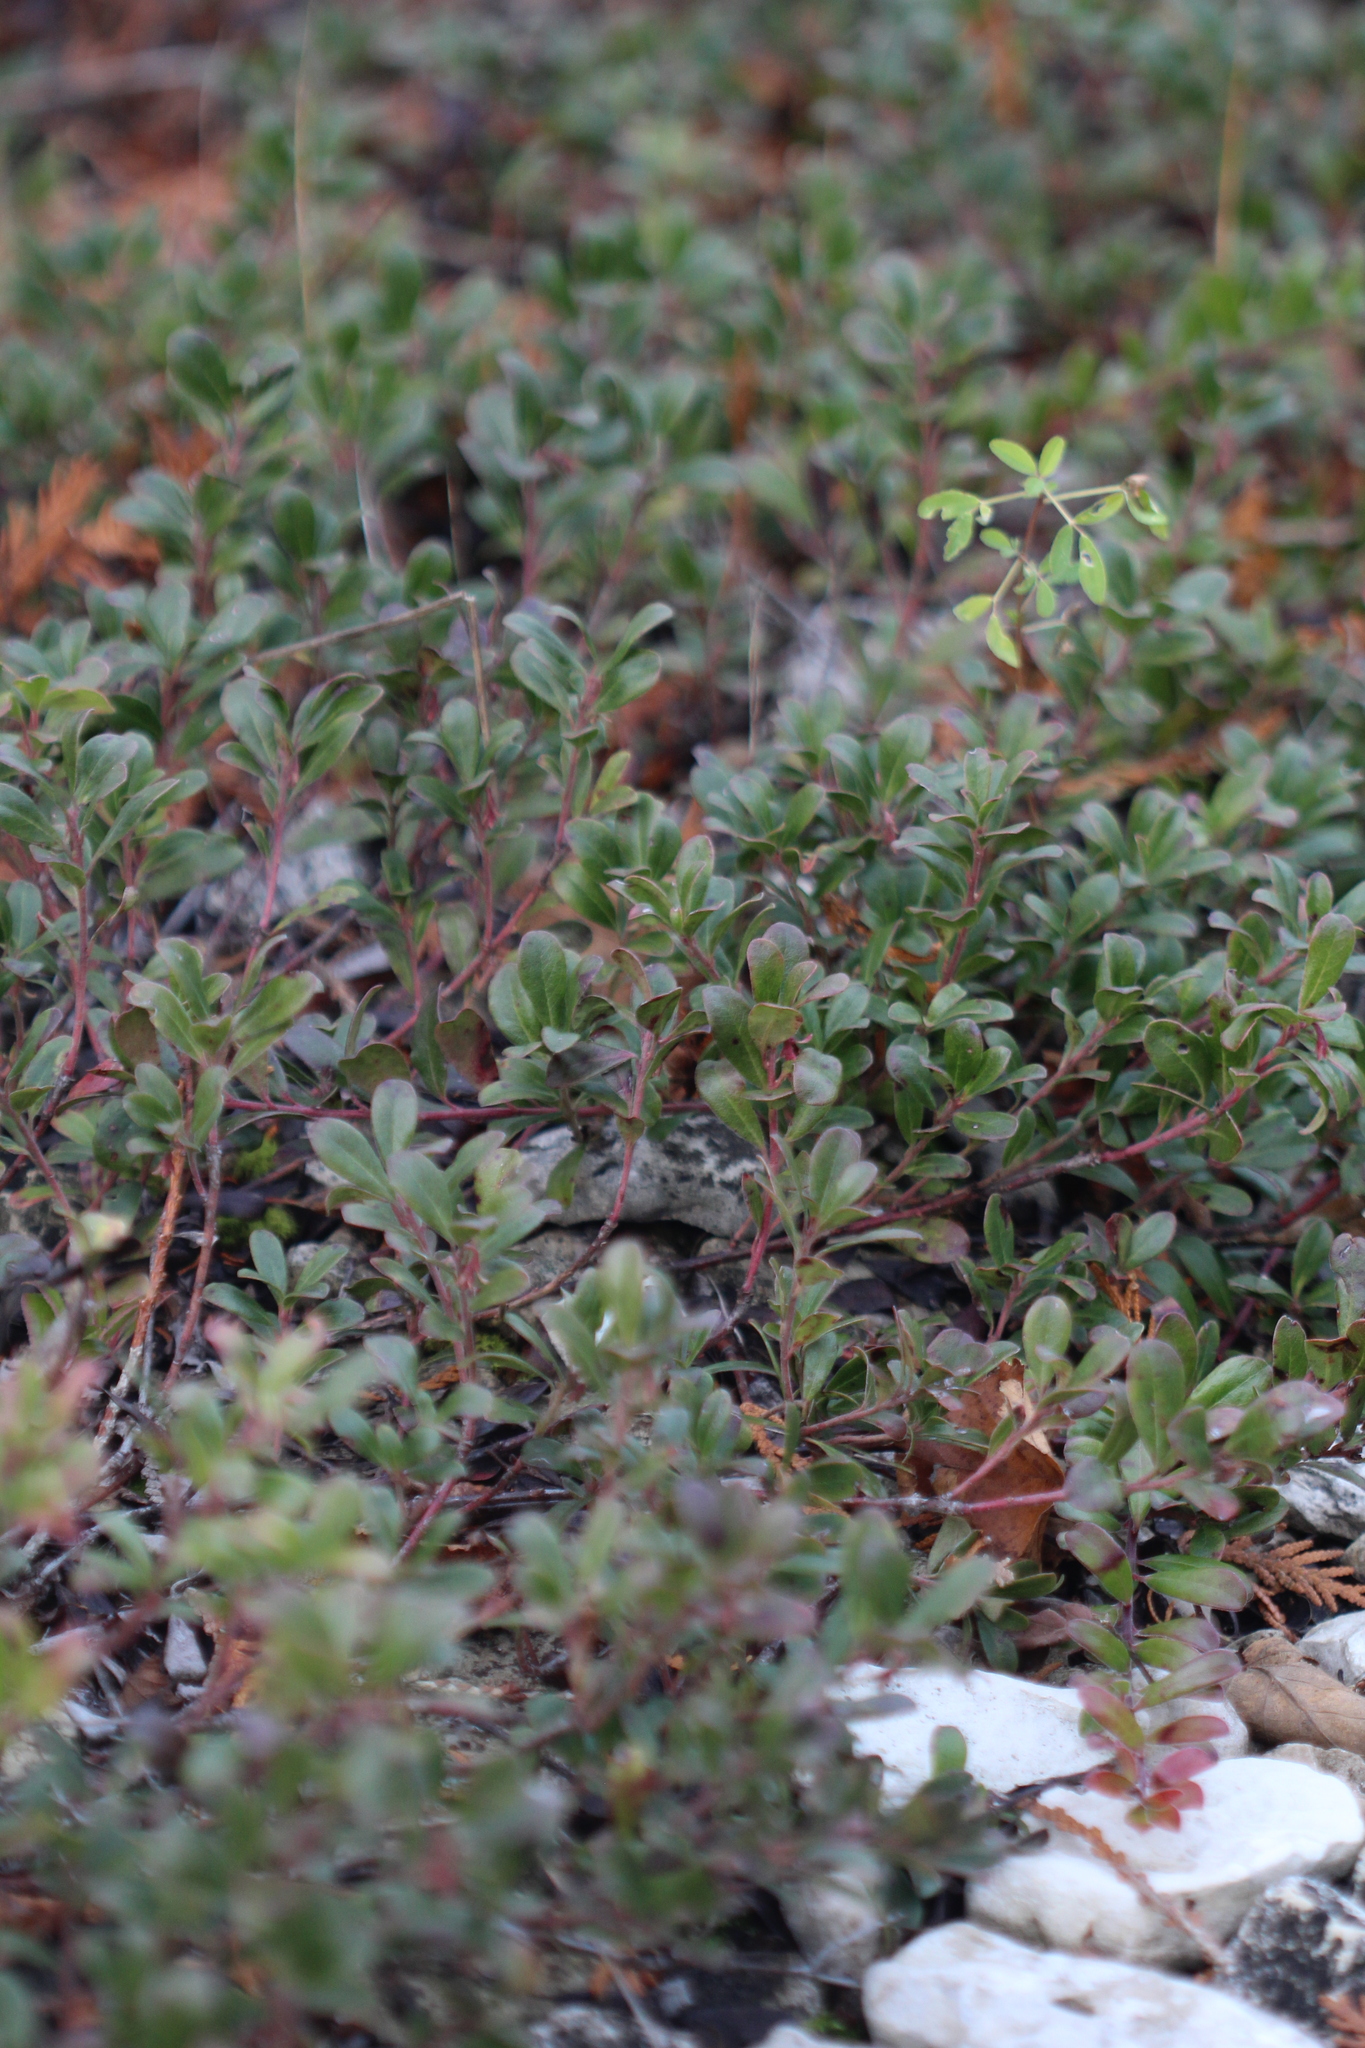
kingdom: Plantae
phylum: Tracheophyta
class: Magnoliopsida
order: Ericales
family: Ericaceae
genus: Arctostaphylos
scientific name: Arctostaphylos uva-ursi
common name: Bearberry
